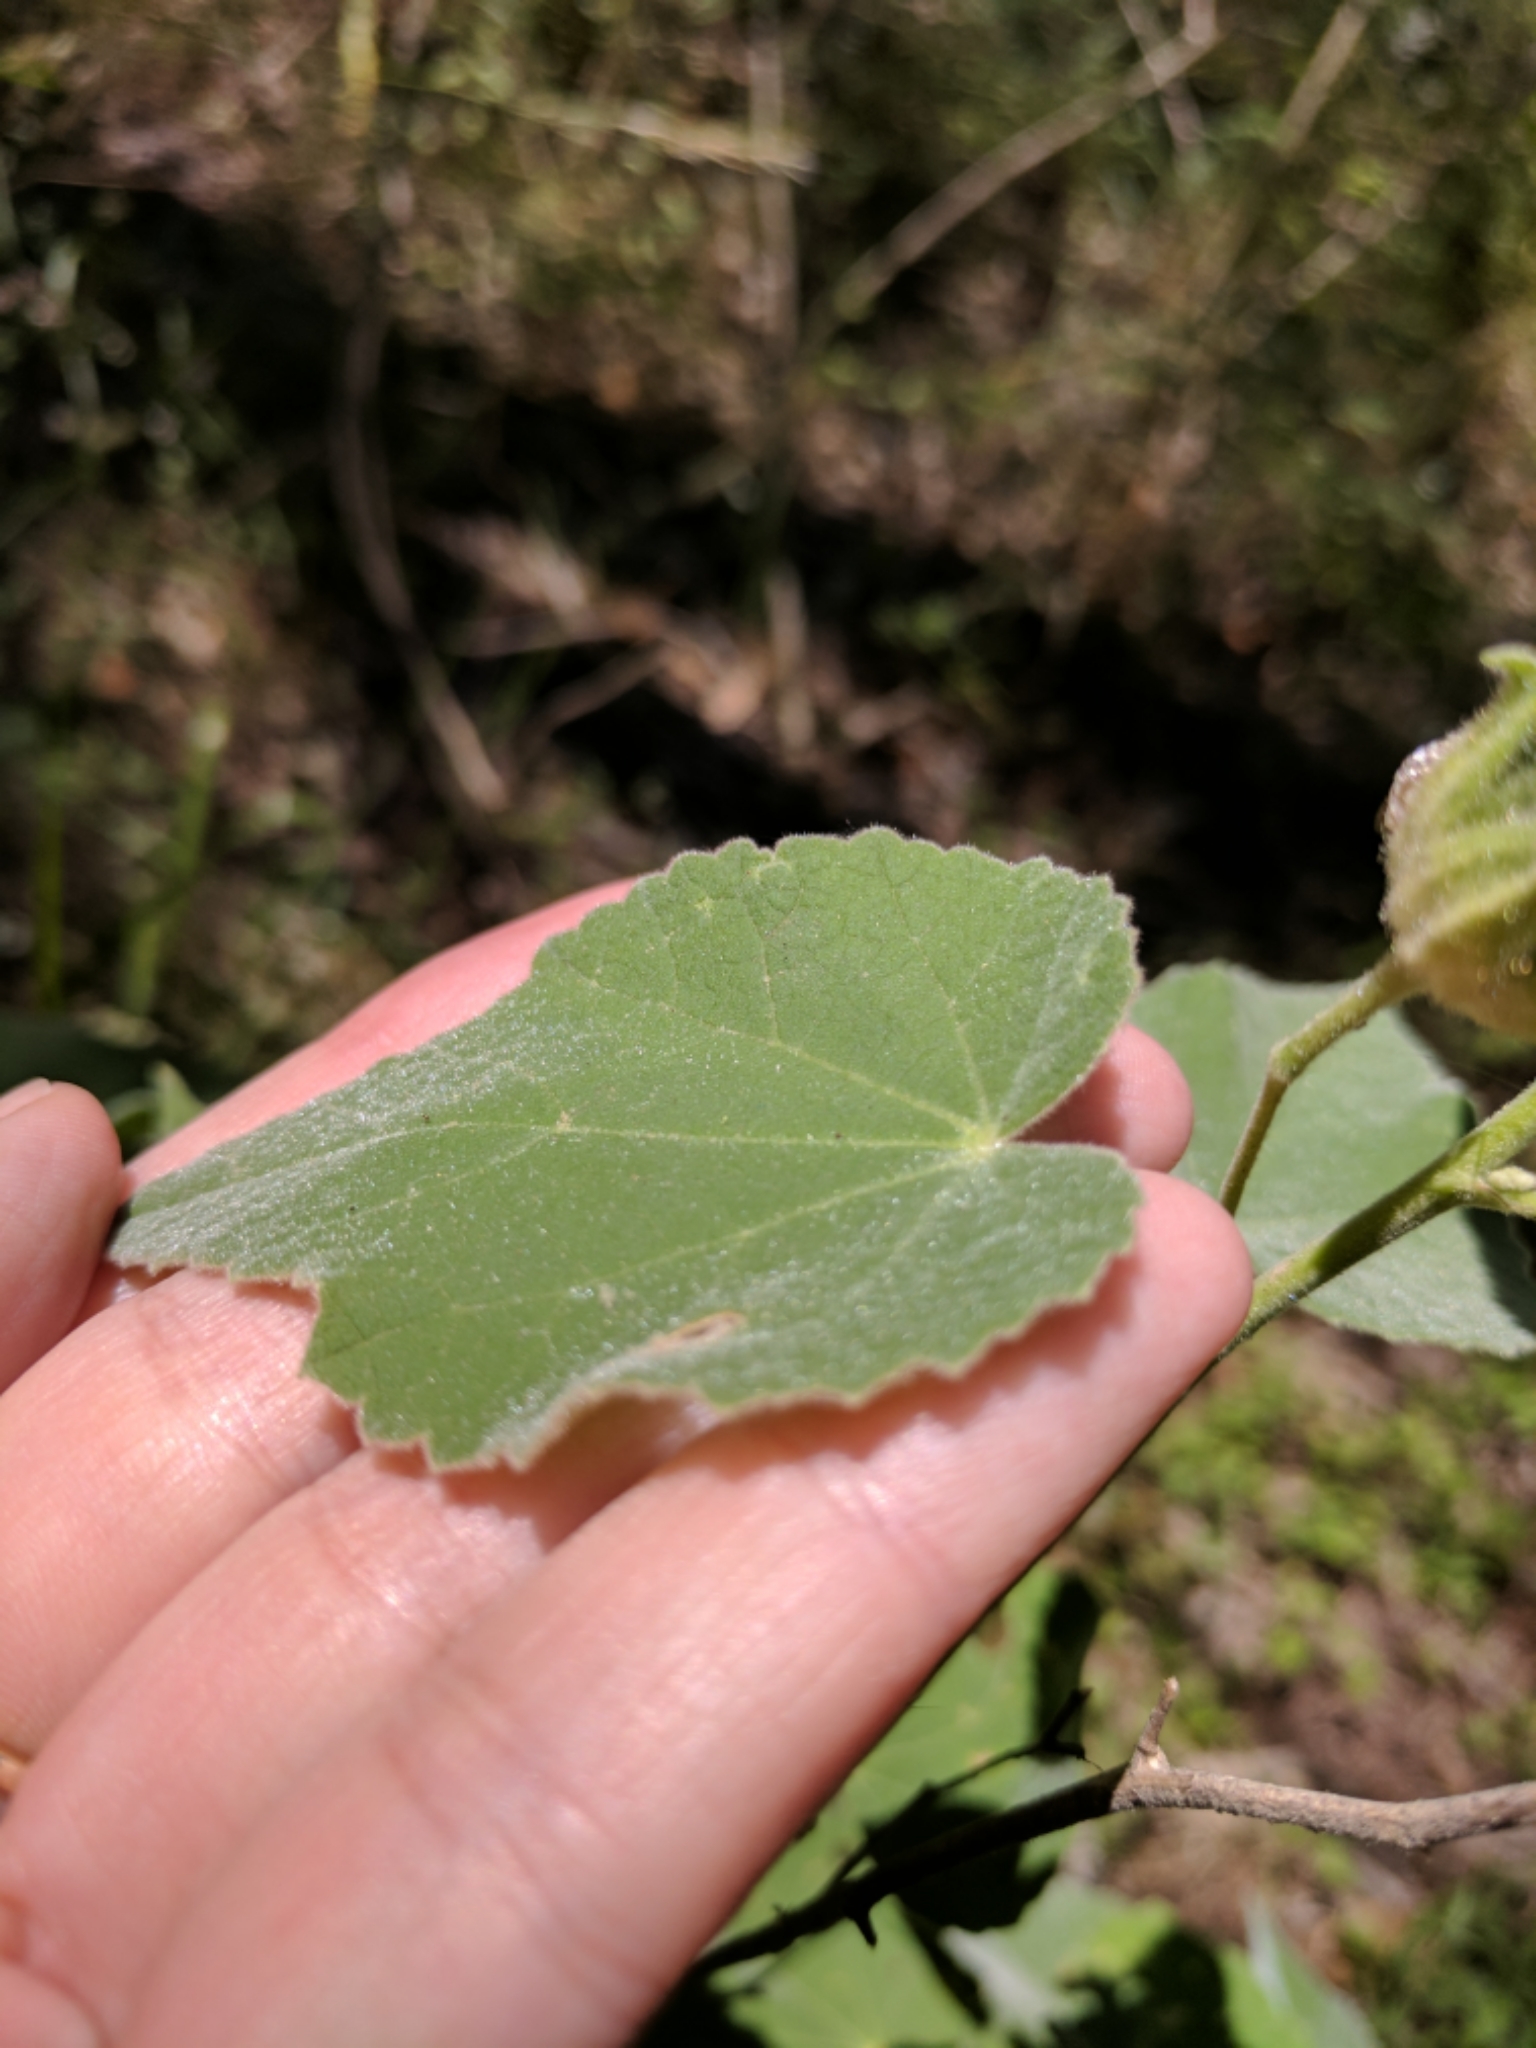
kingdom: Plantae
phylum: Tracheophyta
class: Magnoliopsida
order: Malvales
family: Malvaceae
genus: Allowissadula
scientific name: Allowissadula holosericea
